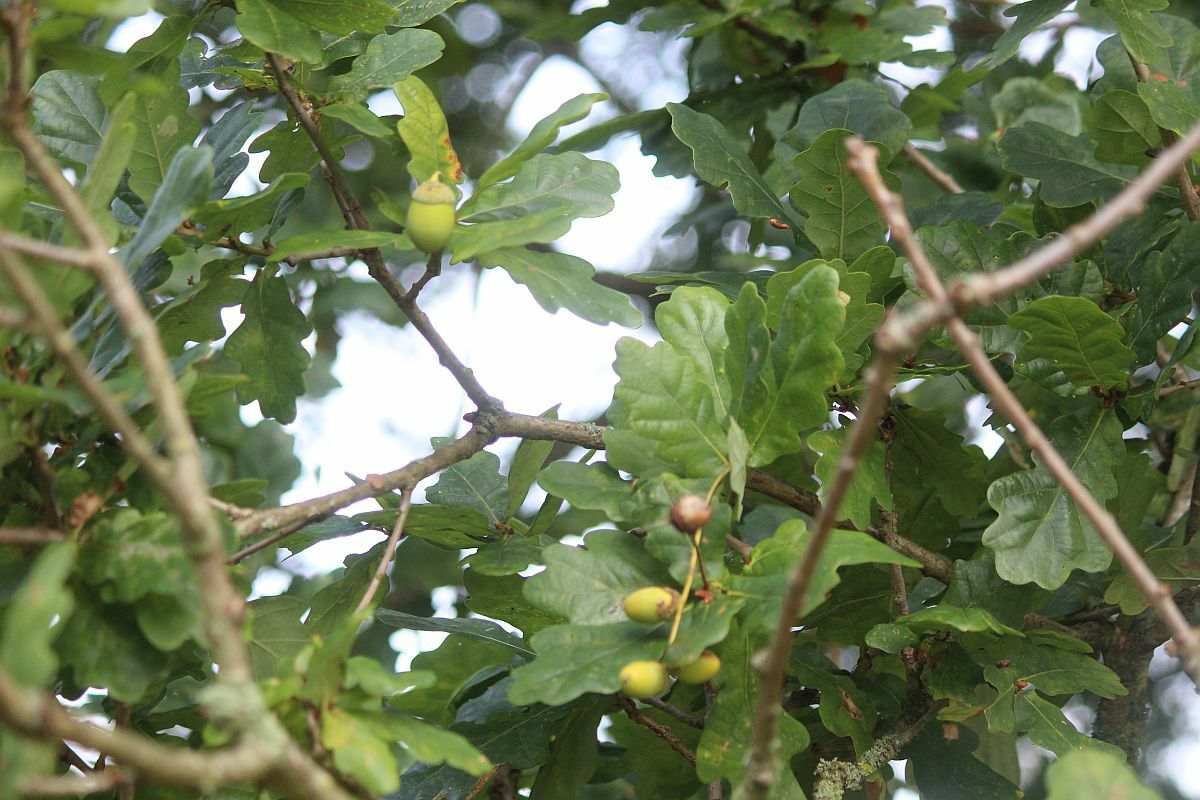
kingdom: Plantae
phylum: Tracheophyta
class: Magnoliopsida
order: Fagales
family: Fagaceae
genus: Quercus
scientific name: Quercus robur
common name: Pedunculate oak
